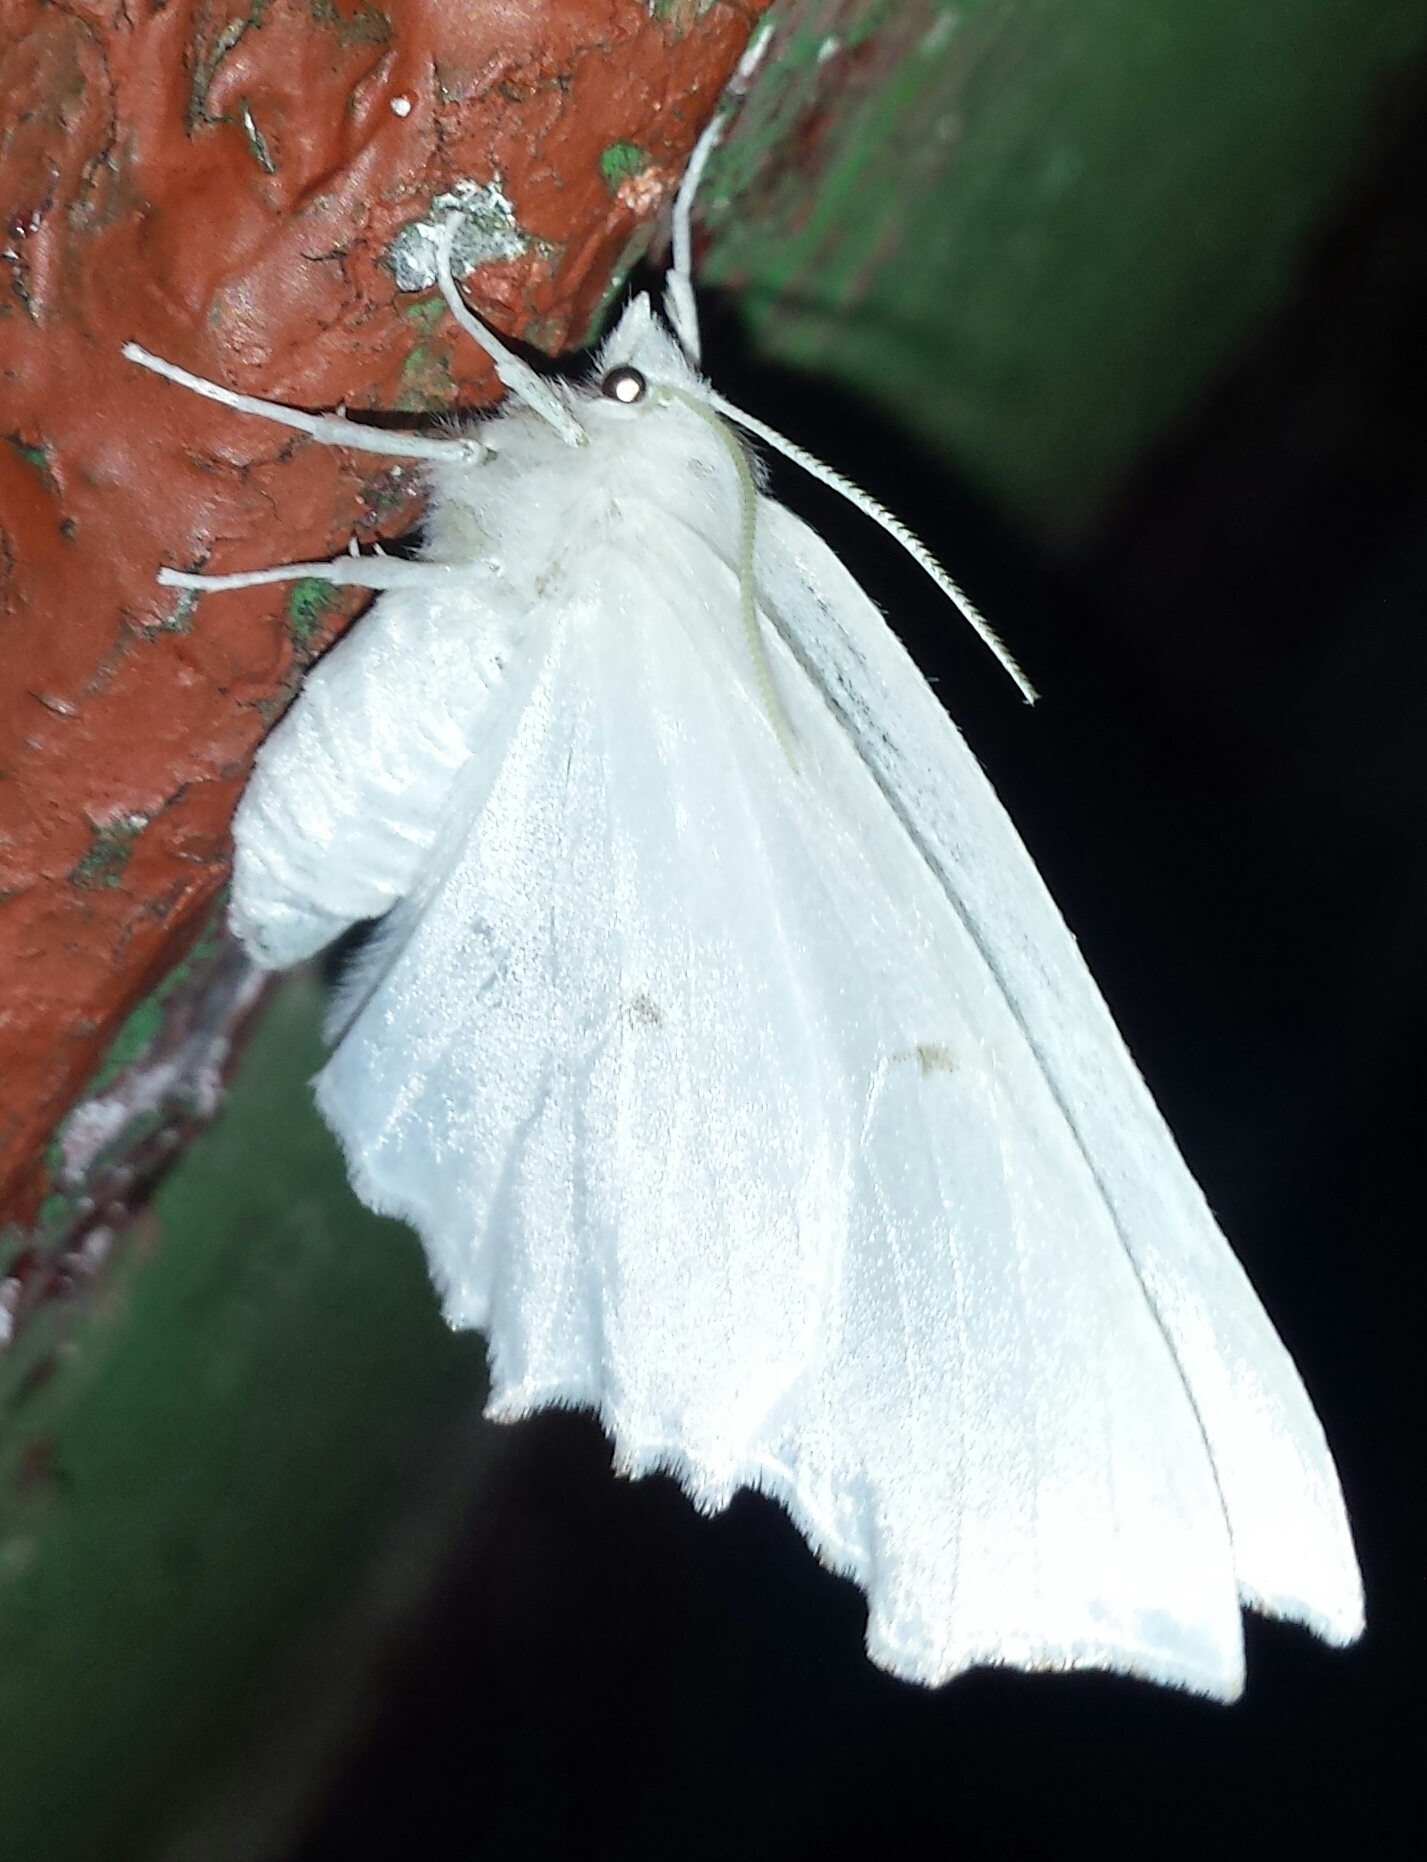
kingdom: Animalia
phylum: Arthropoda
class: Insecta
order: Lepidoptera
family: Geometridae
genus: Ennomos
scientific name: Ennomos subsignaria
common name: Elm spanworm
